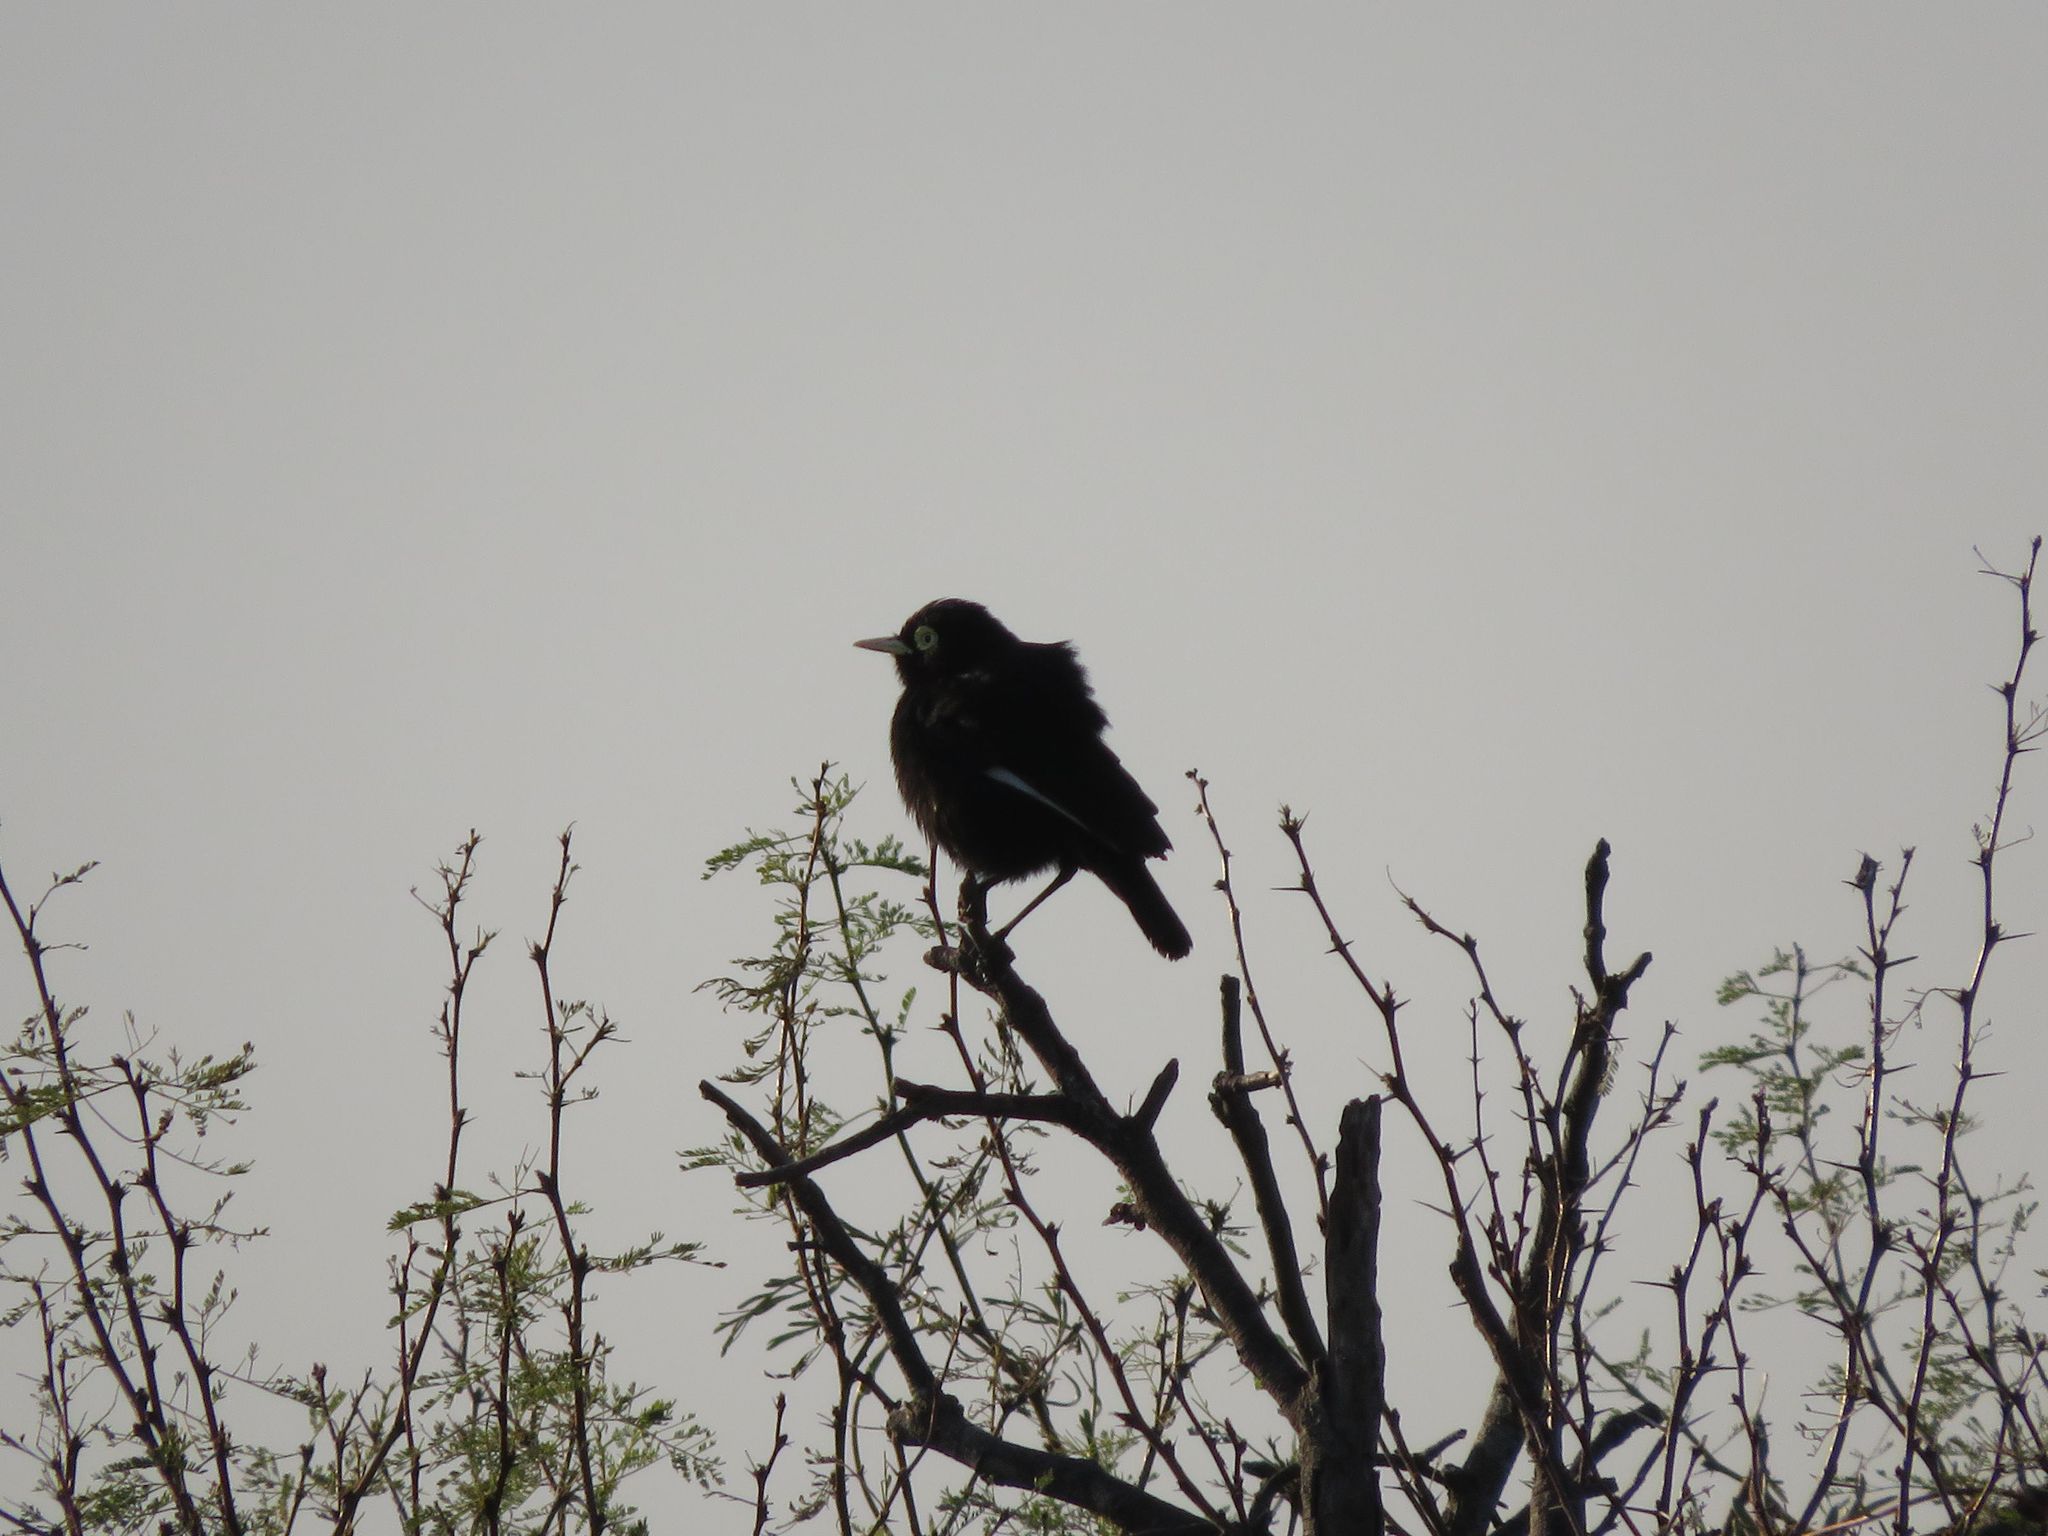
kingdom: Animalia
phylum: Chordata
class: Aves
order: Passeriformes
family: Tyrannidae
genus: Hymenops
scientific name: Hymenops perspicillatus
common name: Spectacled tyrant
